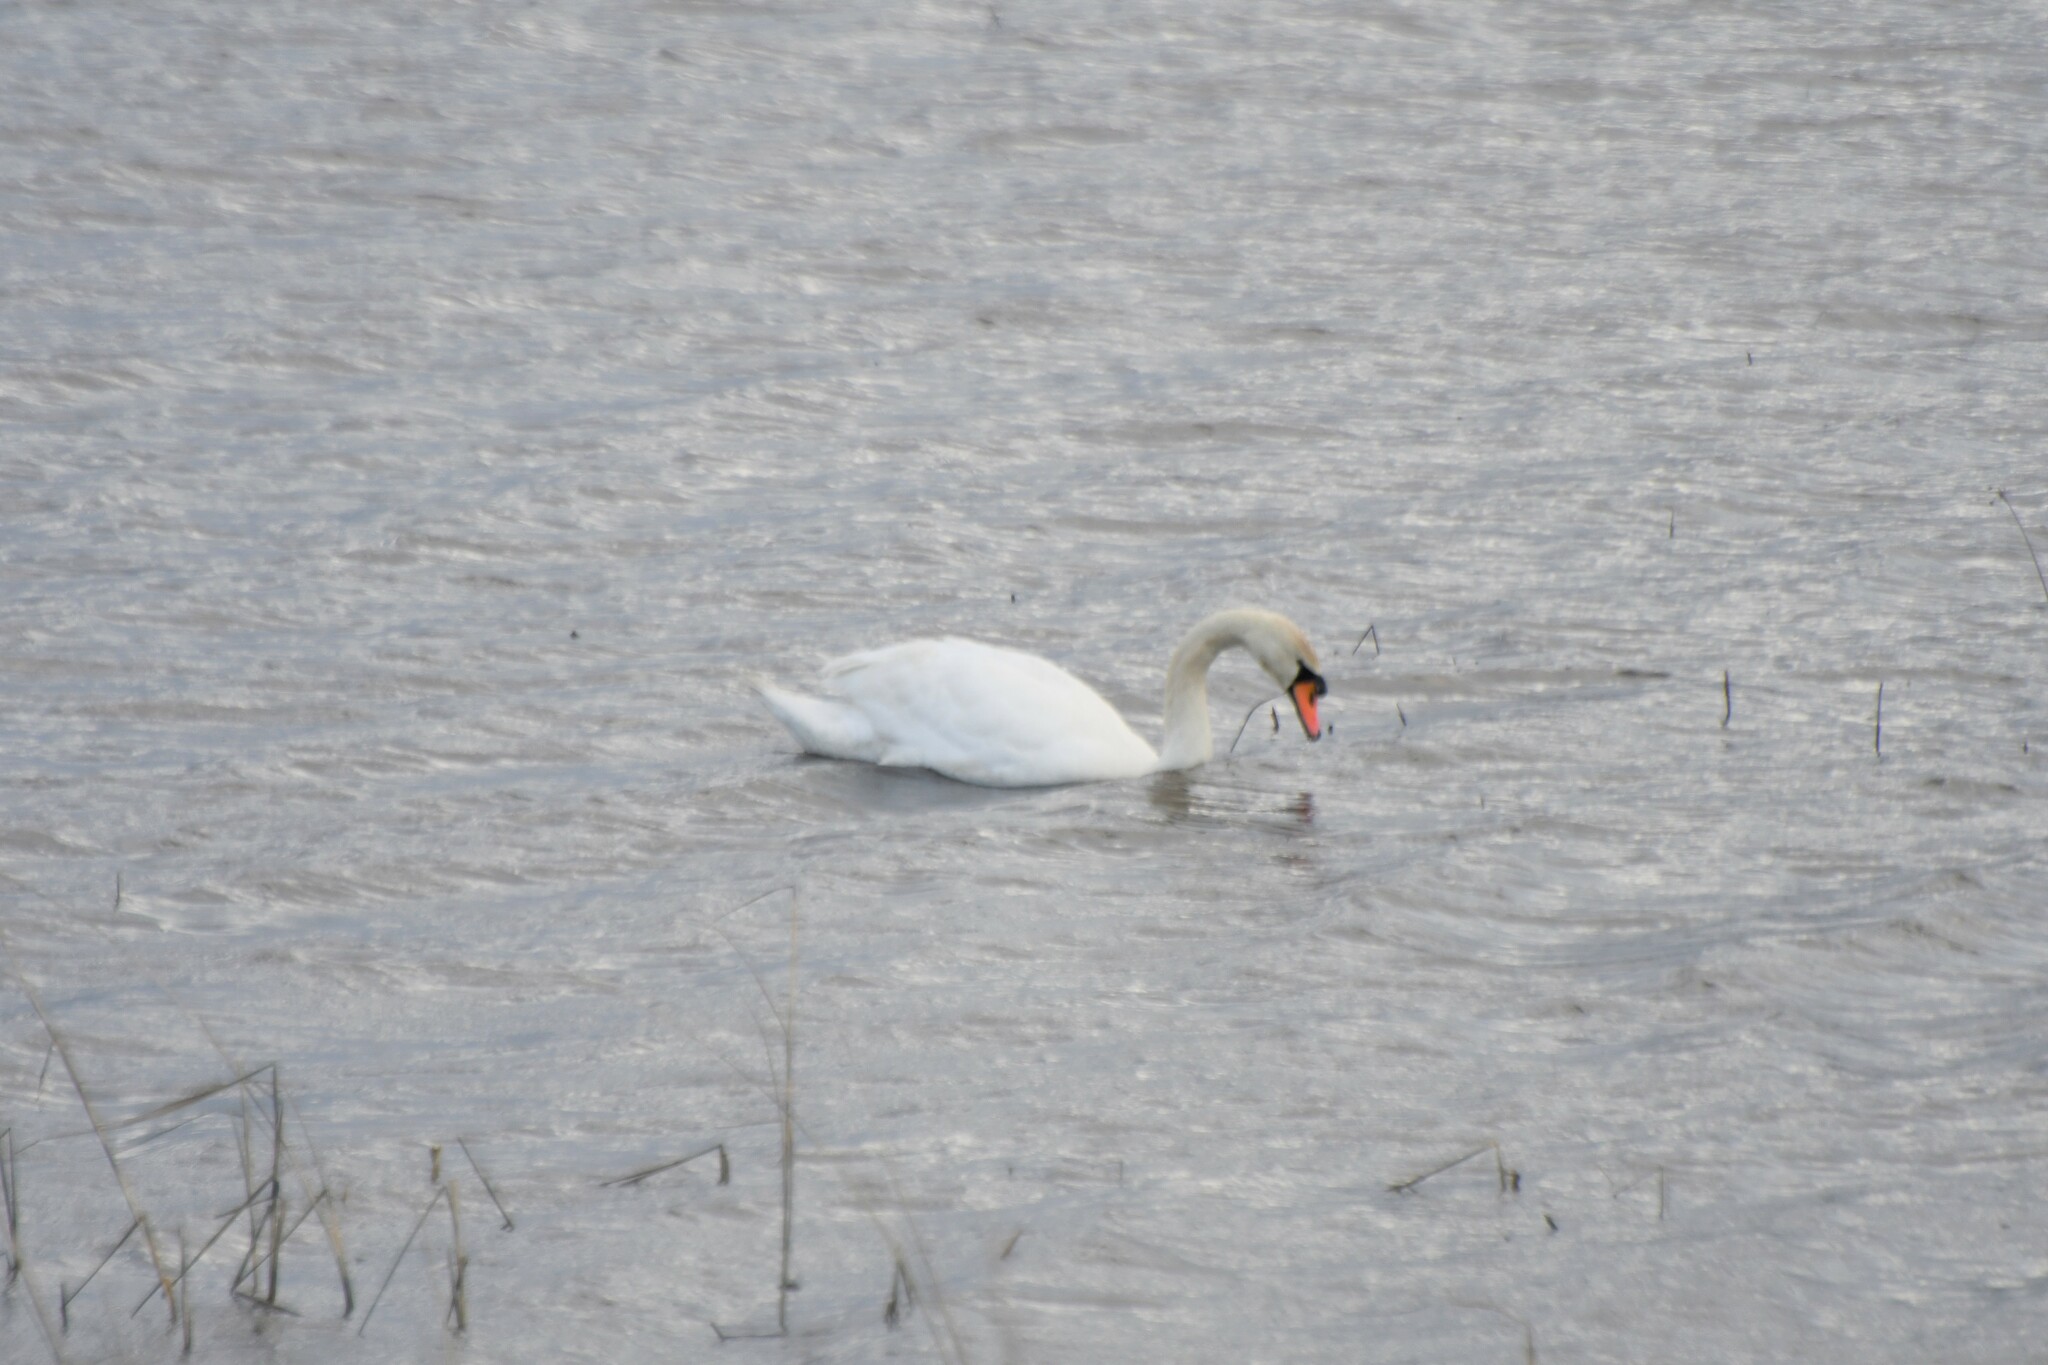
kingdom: Animalia
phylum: Chordata
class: Aves
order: Anseriformes
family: Anatidae
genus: Cygnus
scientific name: Cygnus olor
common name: Mute swan
